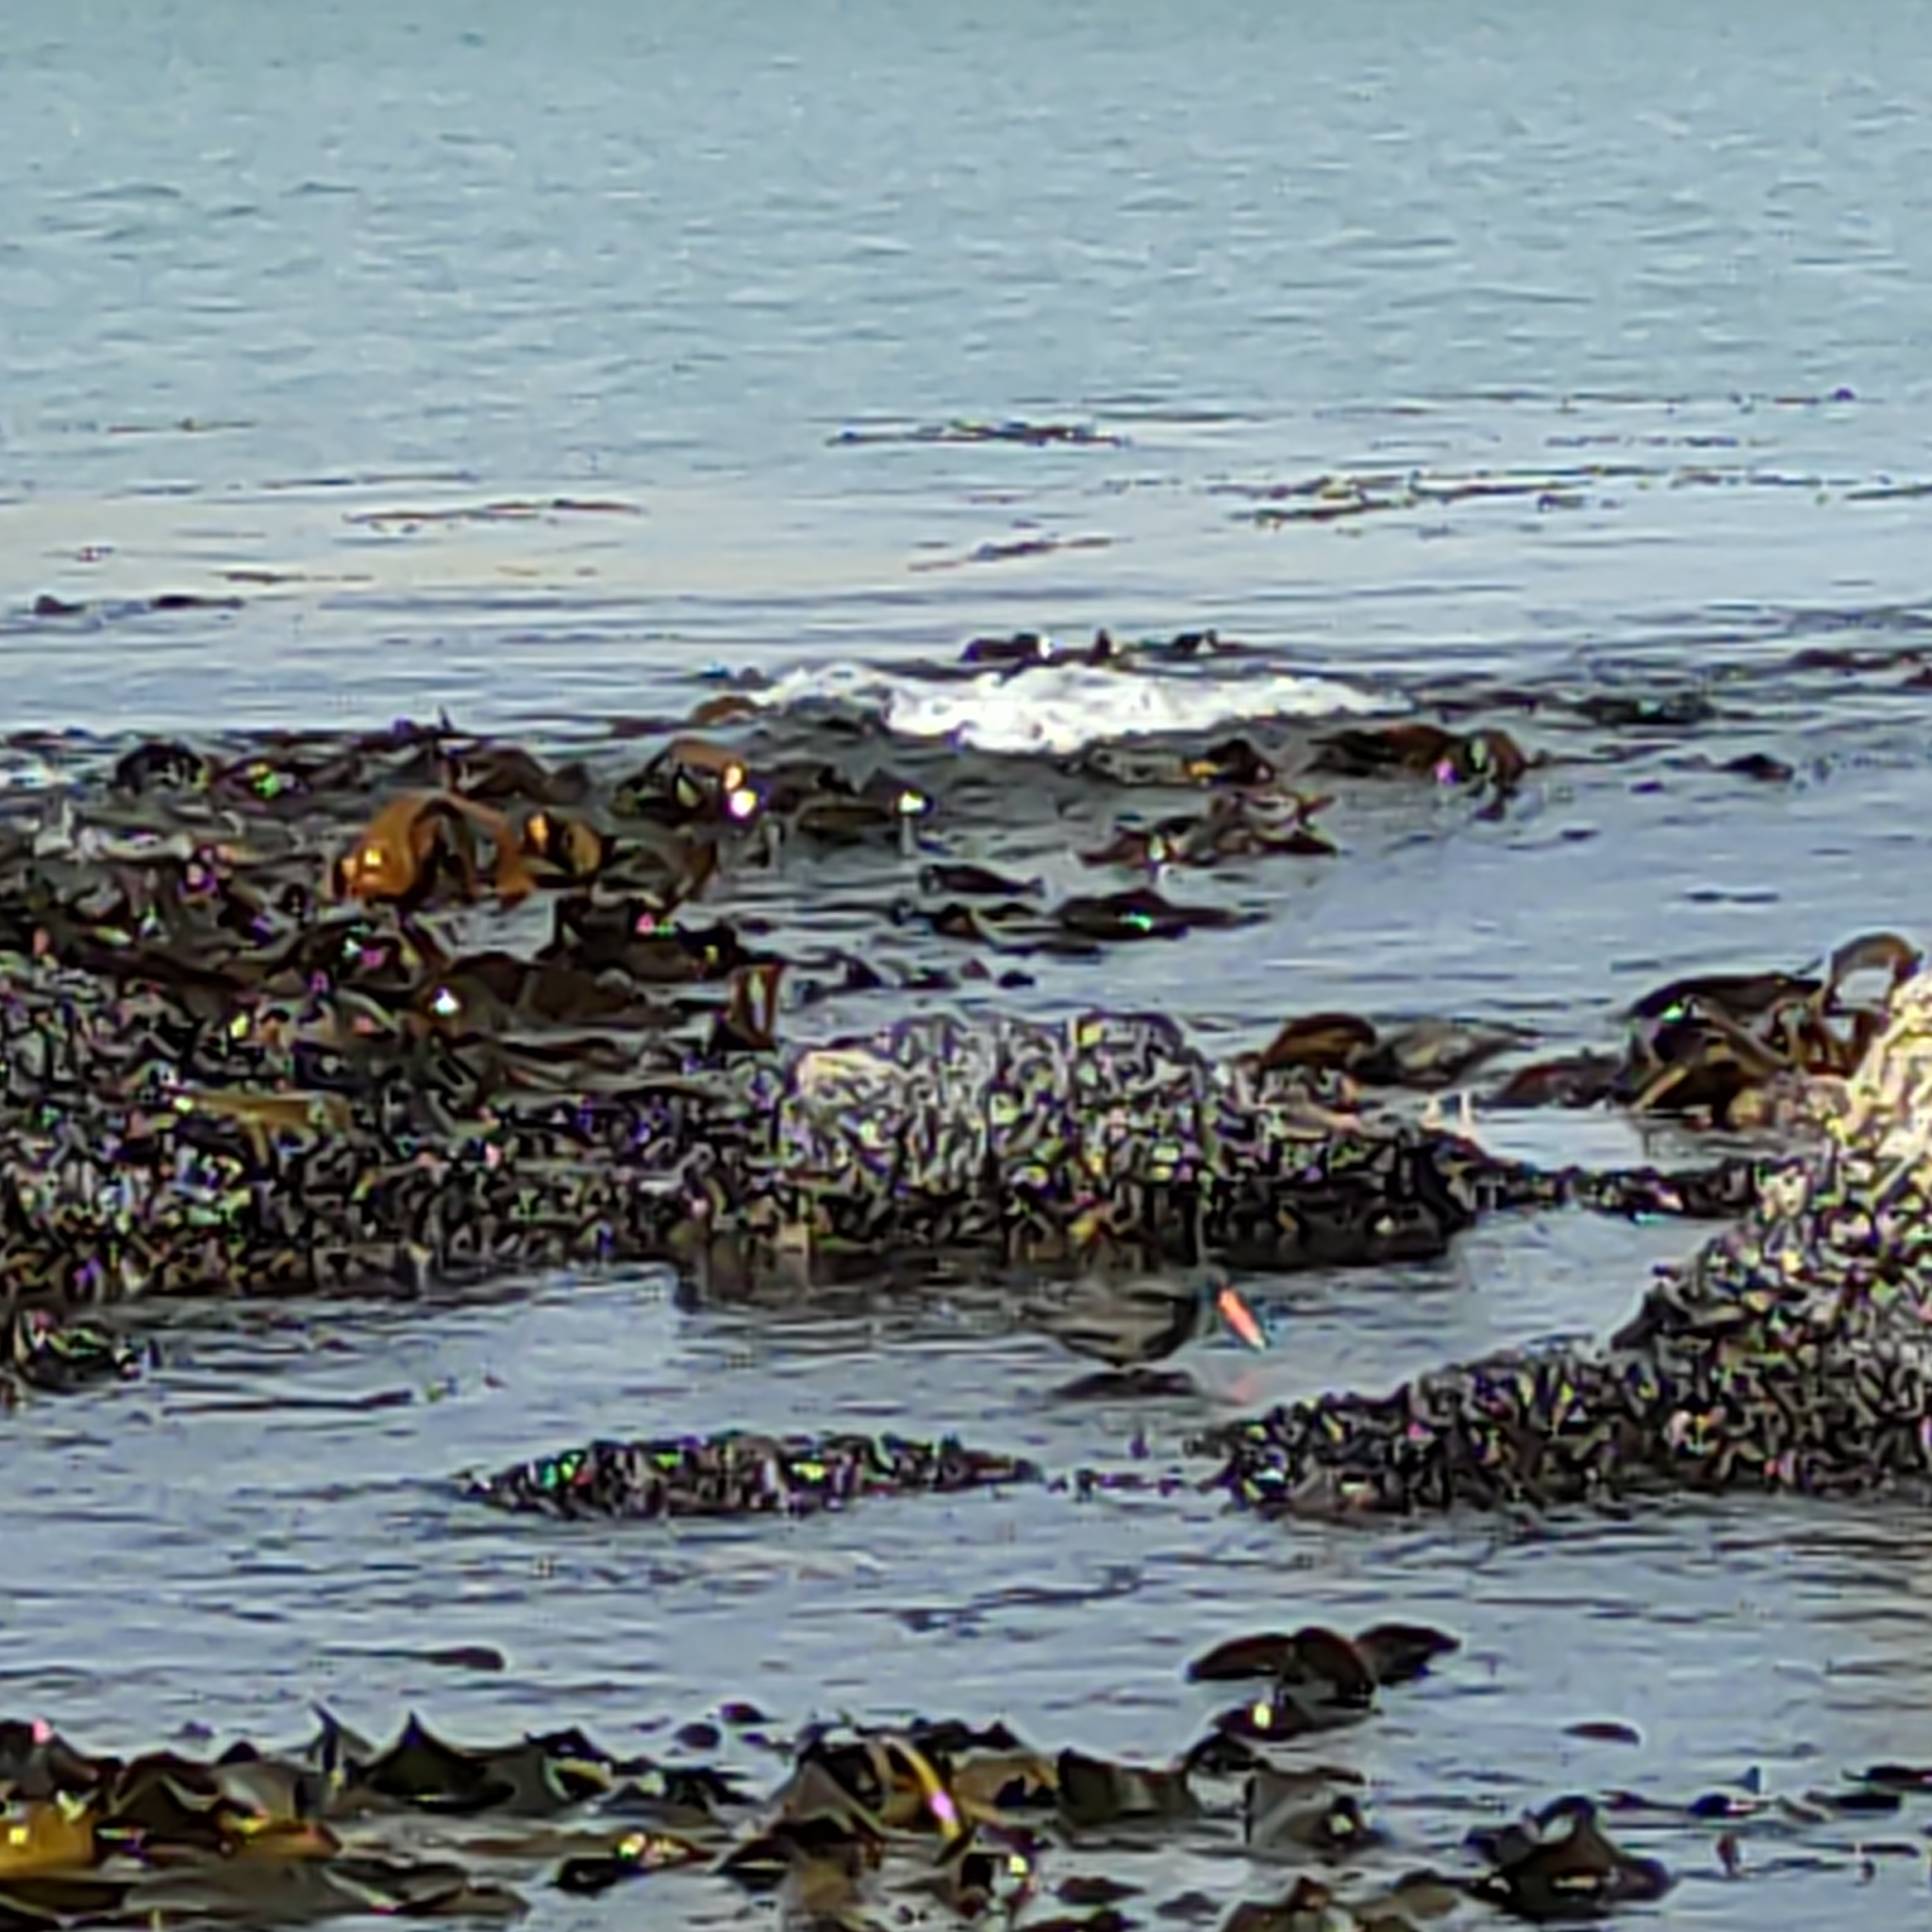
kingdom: Animalia
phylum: Chordata
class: Aves
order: Charadriiformes
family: Haematopodidae
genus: Haematopus
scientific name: Haematopus unicolor
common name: Variable oystercatcher
